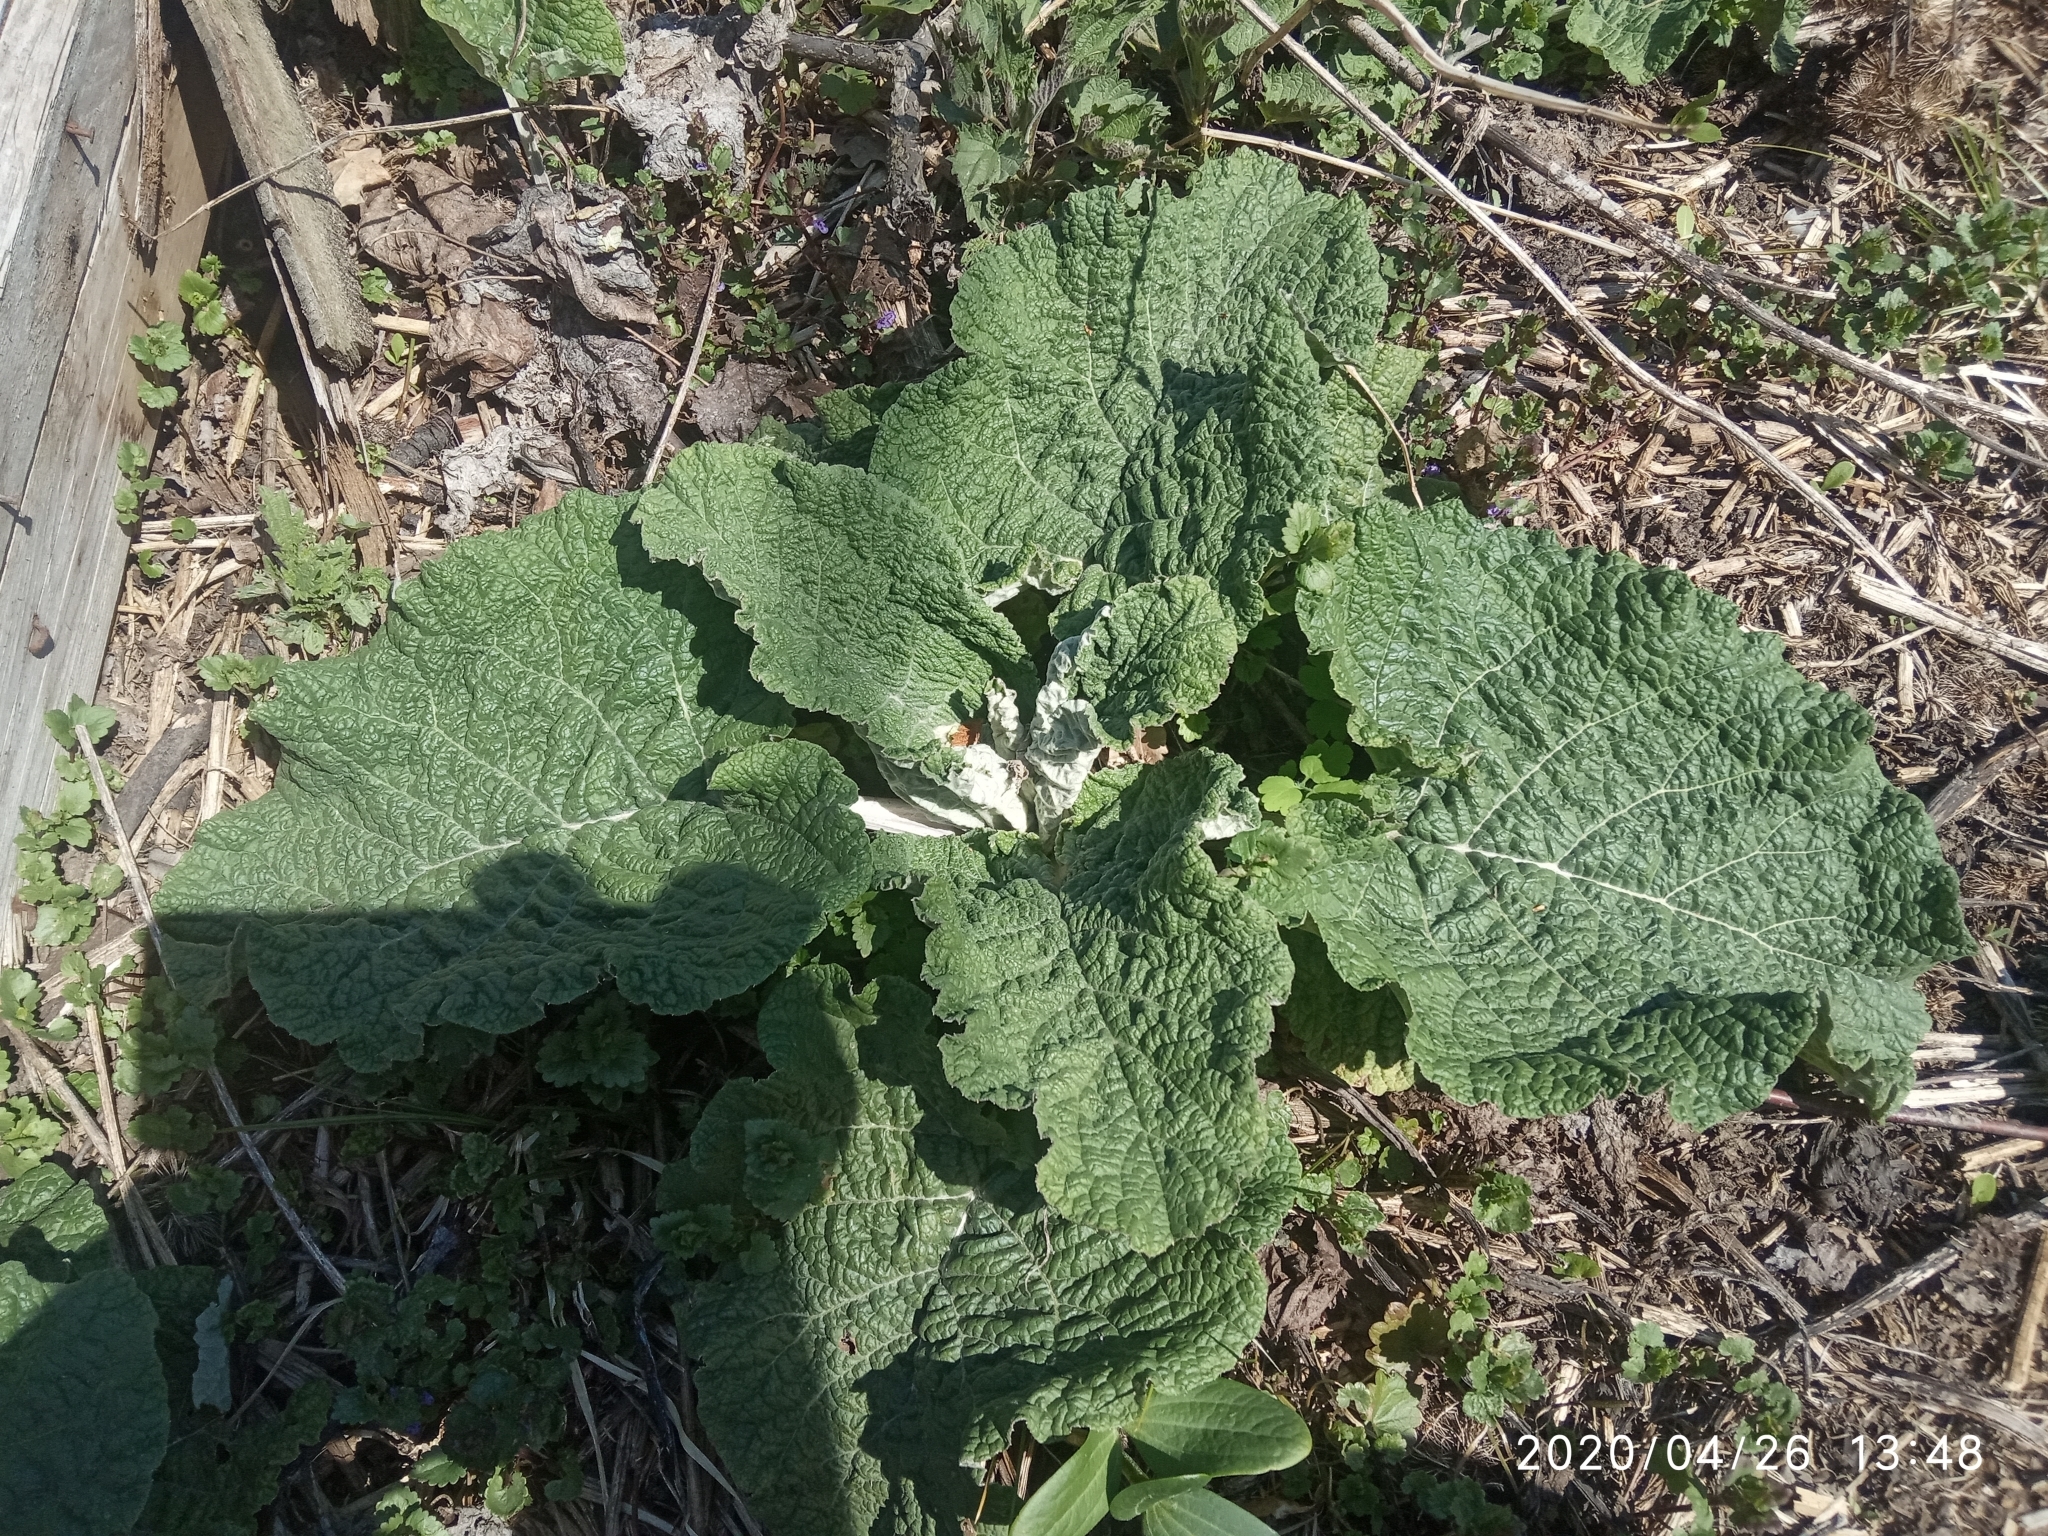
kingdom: Plantae
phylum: Tracheophyta
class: Magnoliopsida
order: Asterales
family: Asteraceae
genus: Arctium
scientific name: Arctium
